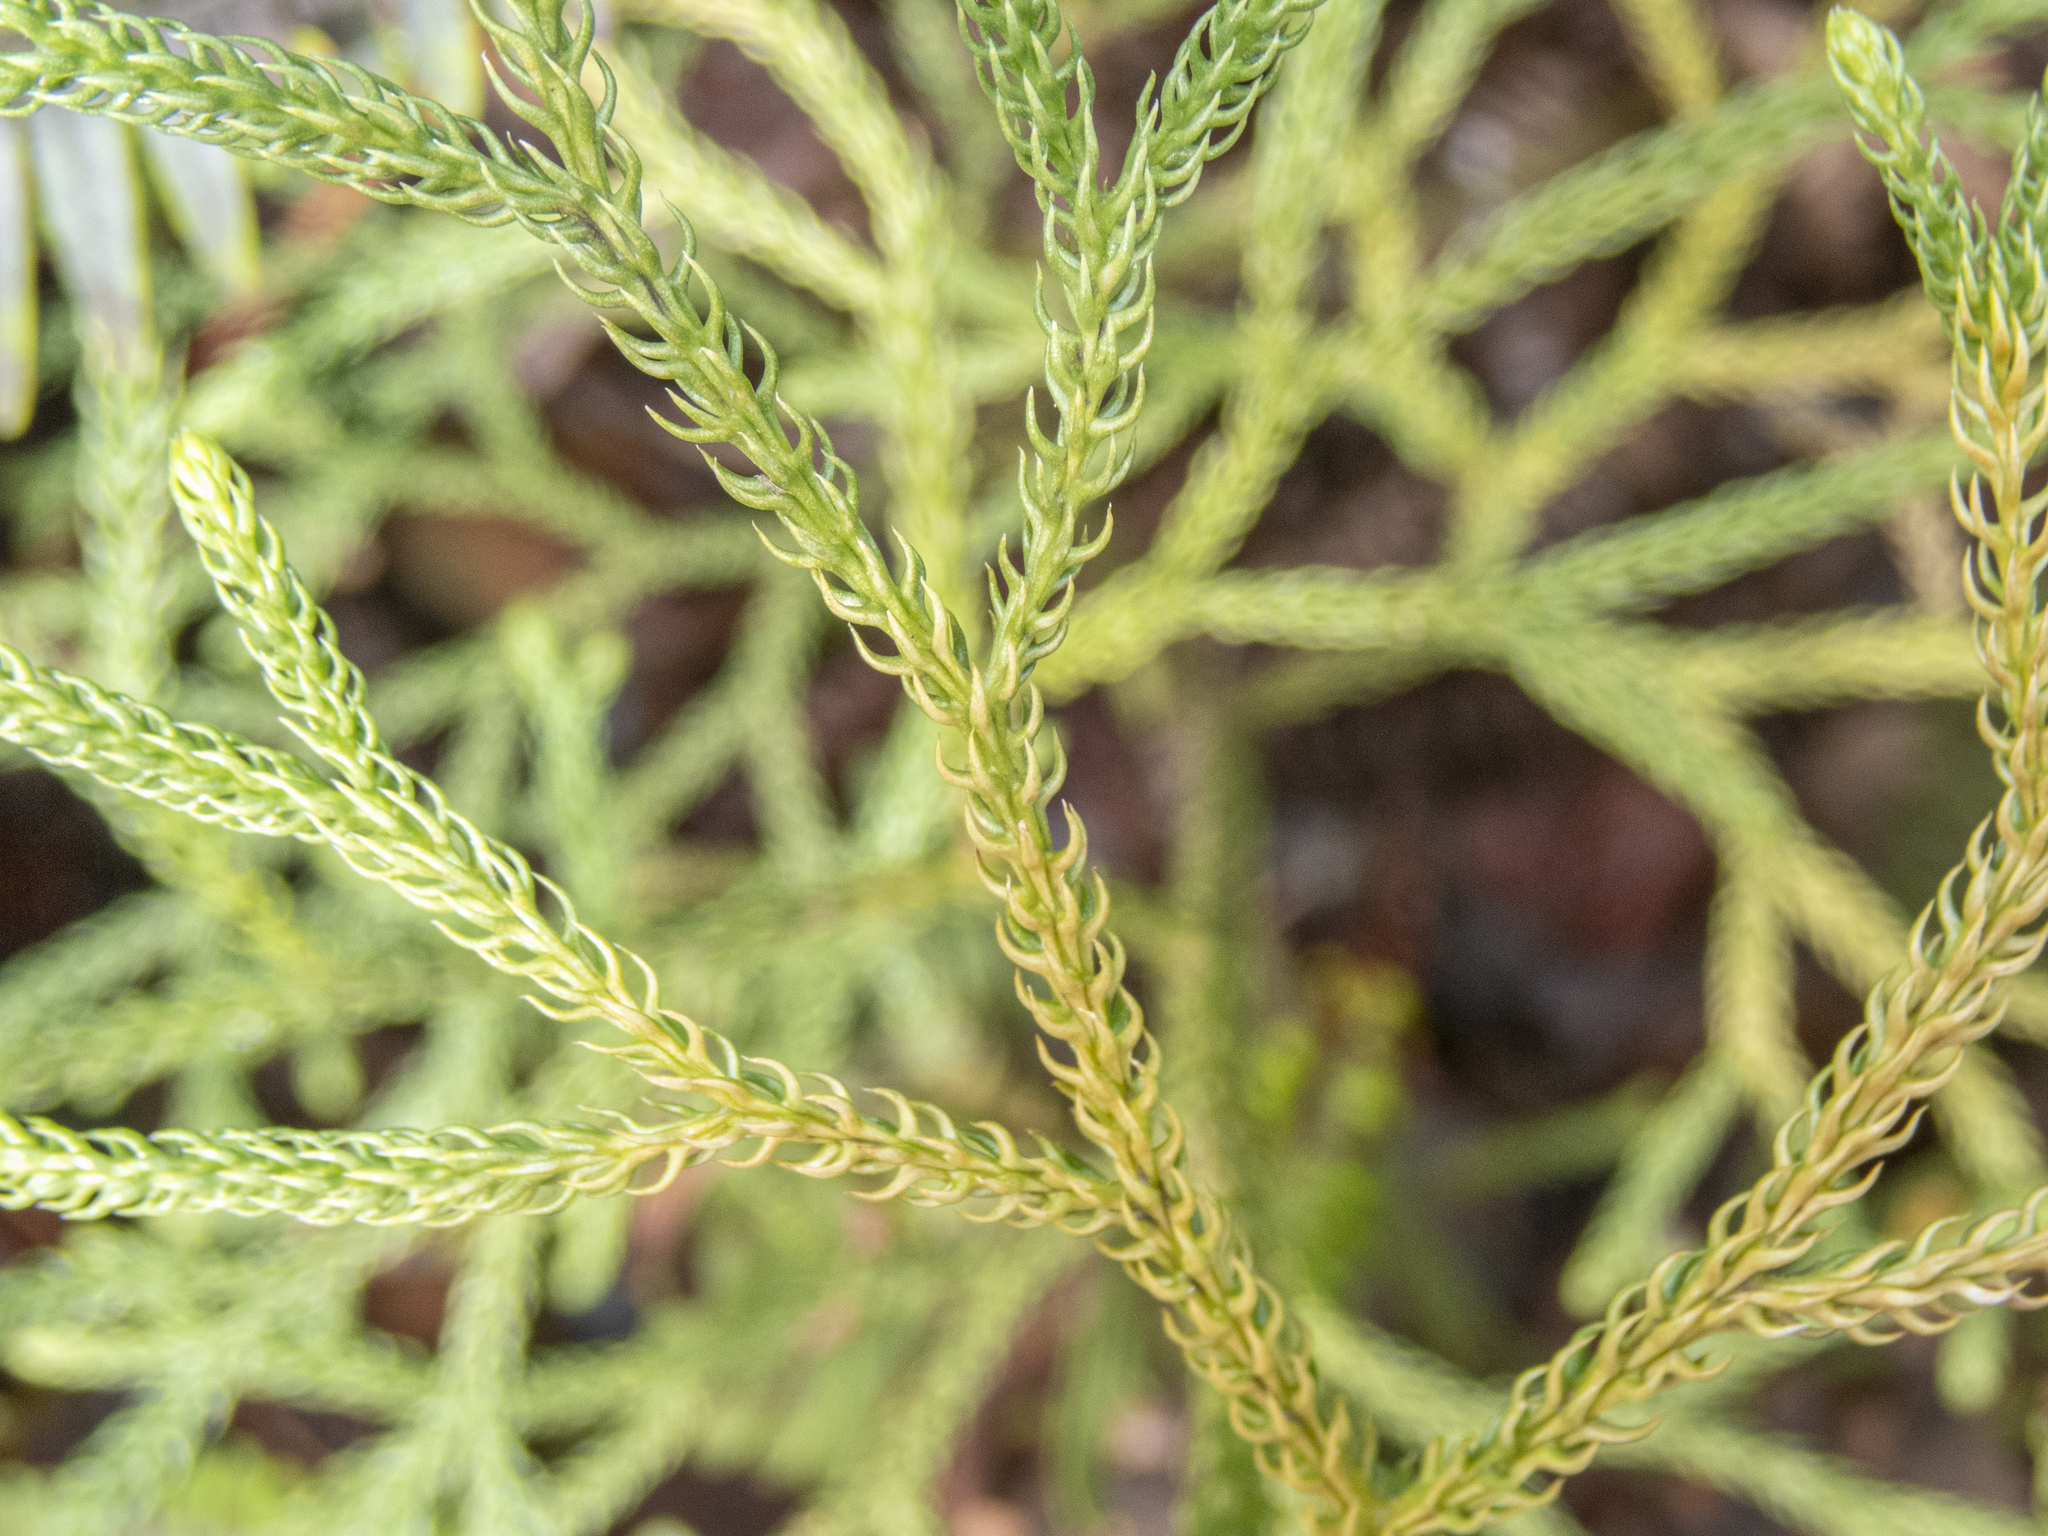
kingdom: Plantae
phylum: Tracheophyta
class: Lycopodiopsida
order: Lycopodiales
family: Lycopodiaceae
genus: Palhinhaea
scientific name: Palhinhaea cernua
